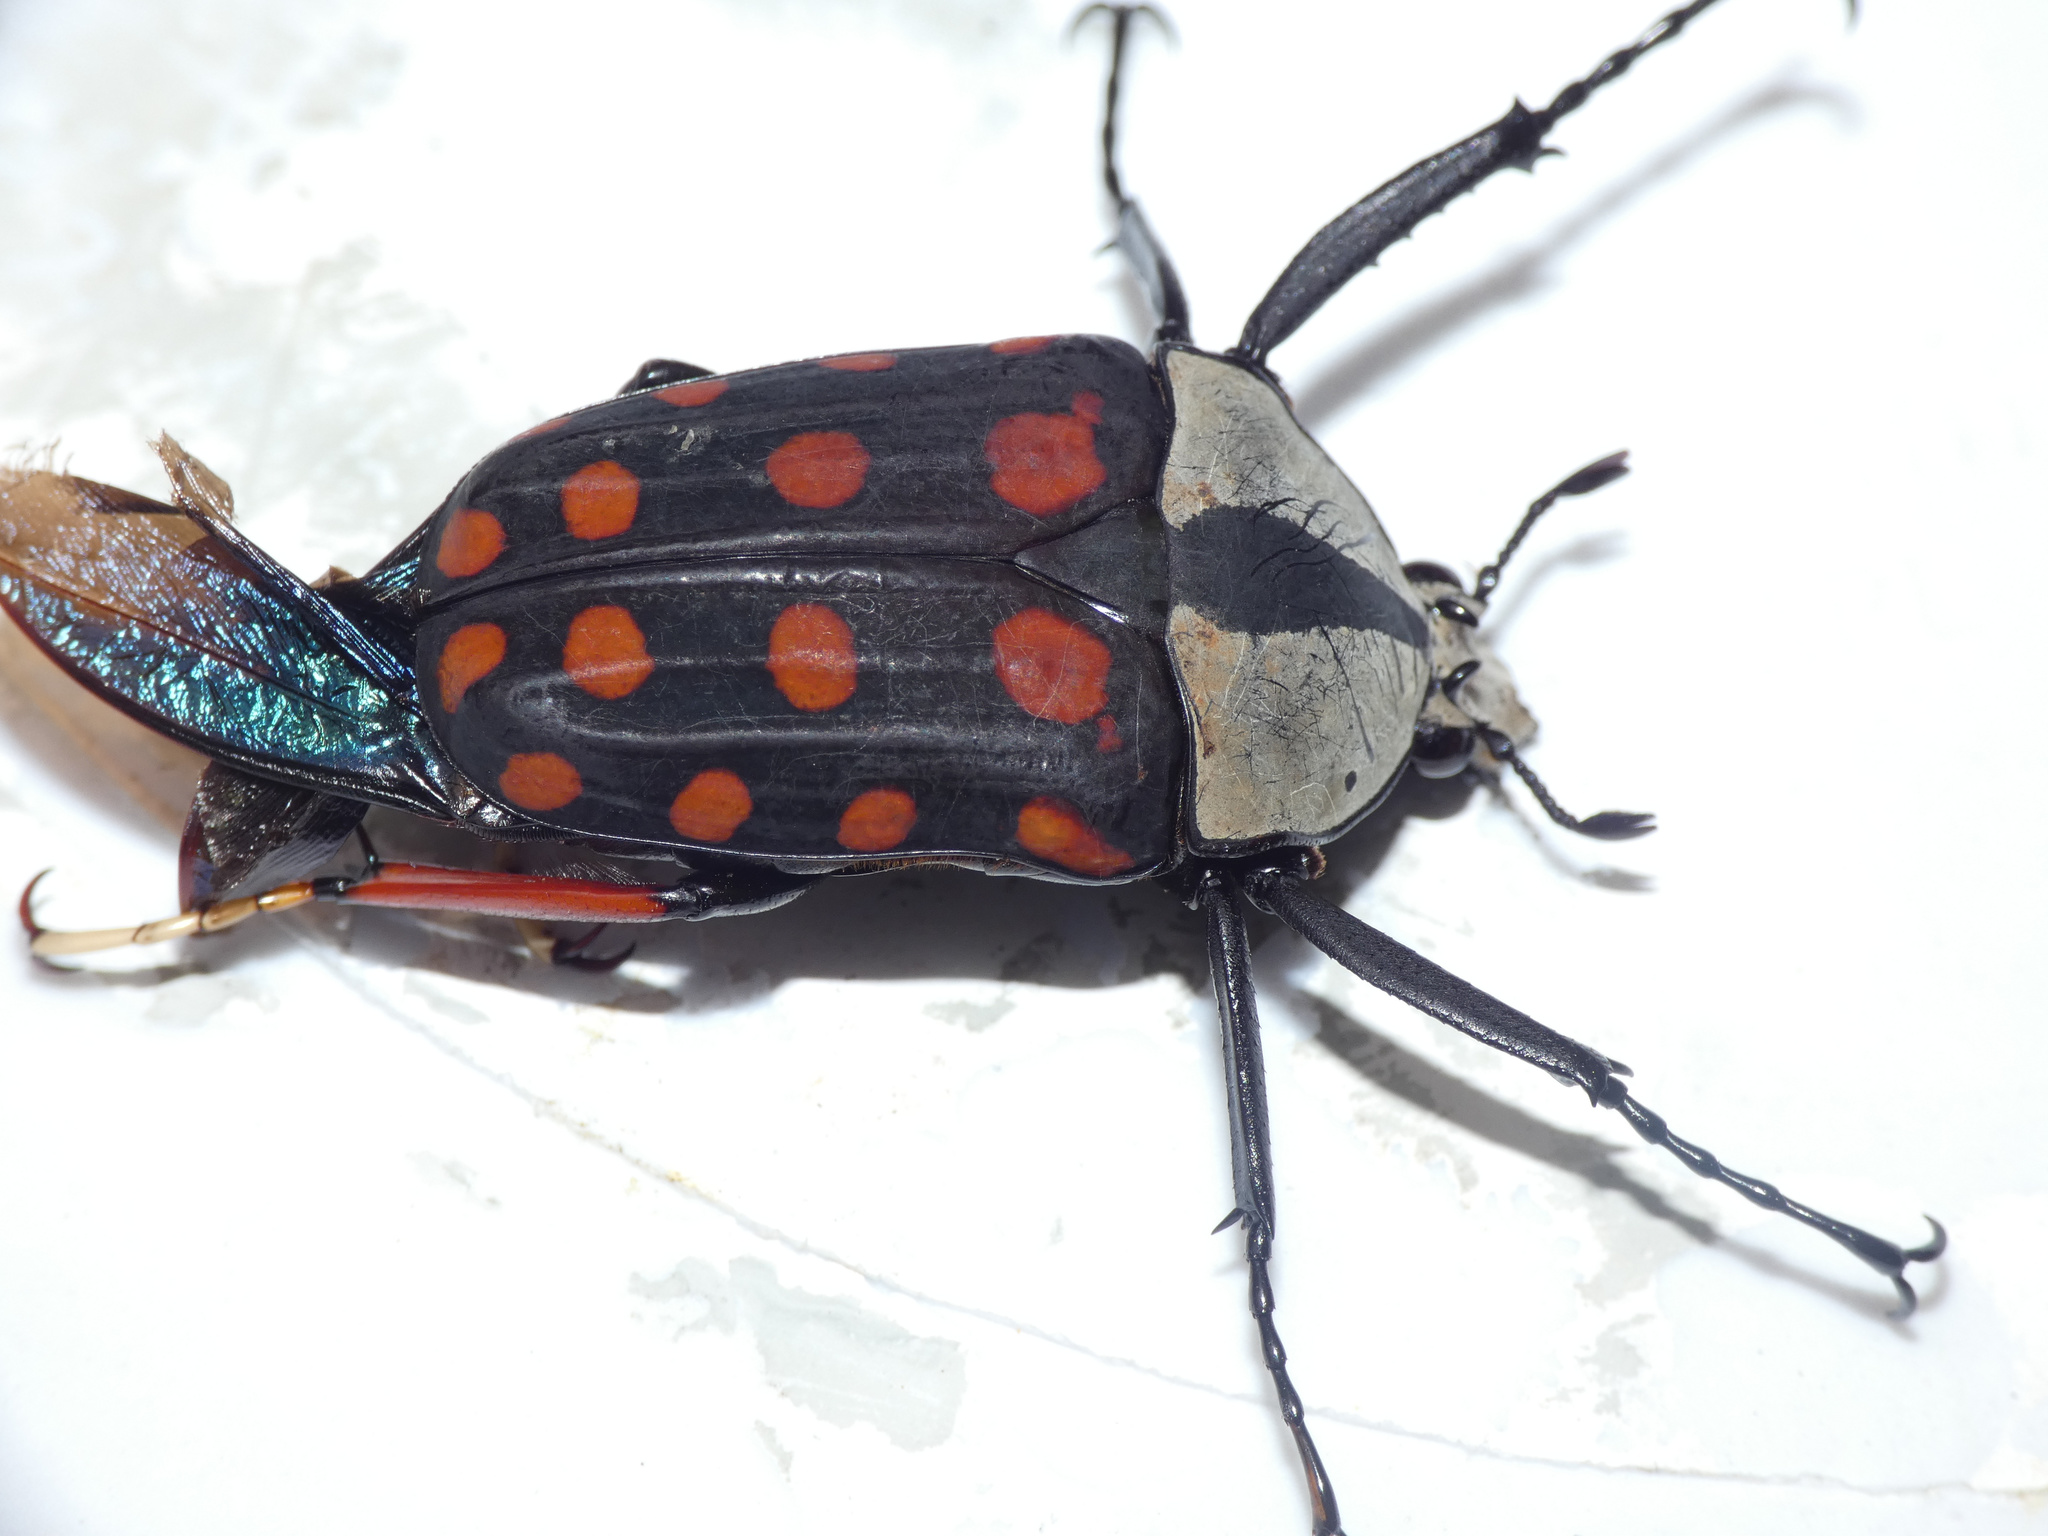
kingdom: Animalia
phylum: Arthropoda
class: Insecta
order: Coleoptera
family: Scarabaeidae
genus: Mecynorhina
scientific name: Mecynorhina passerinii
